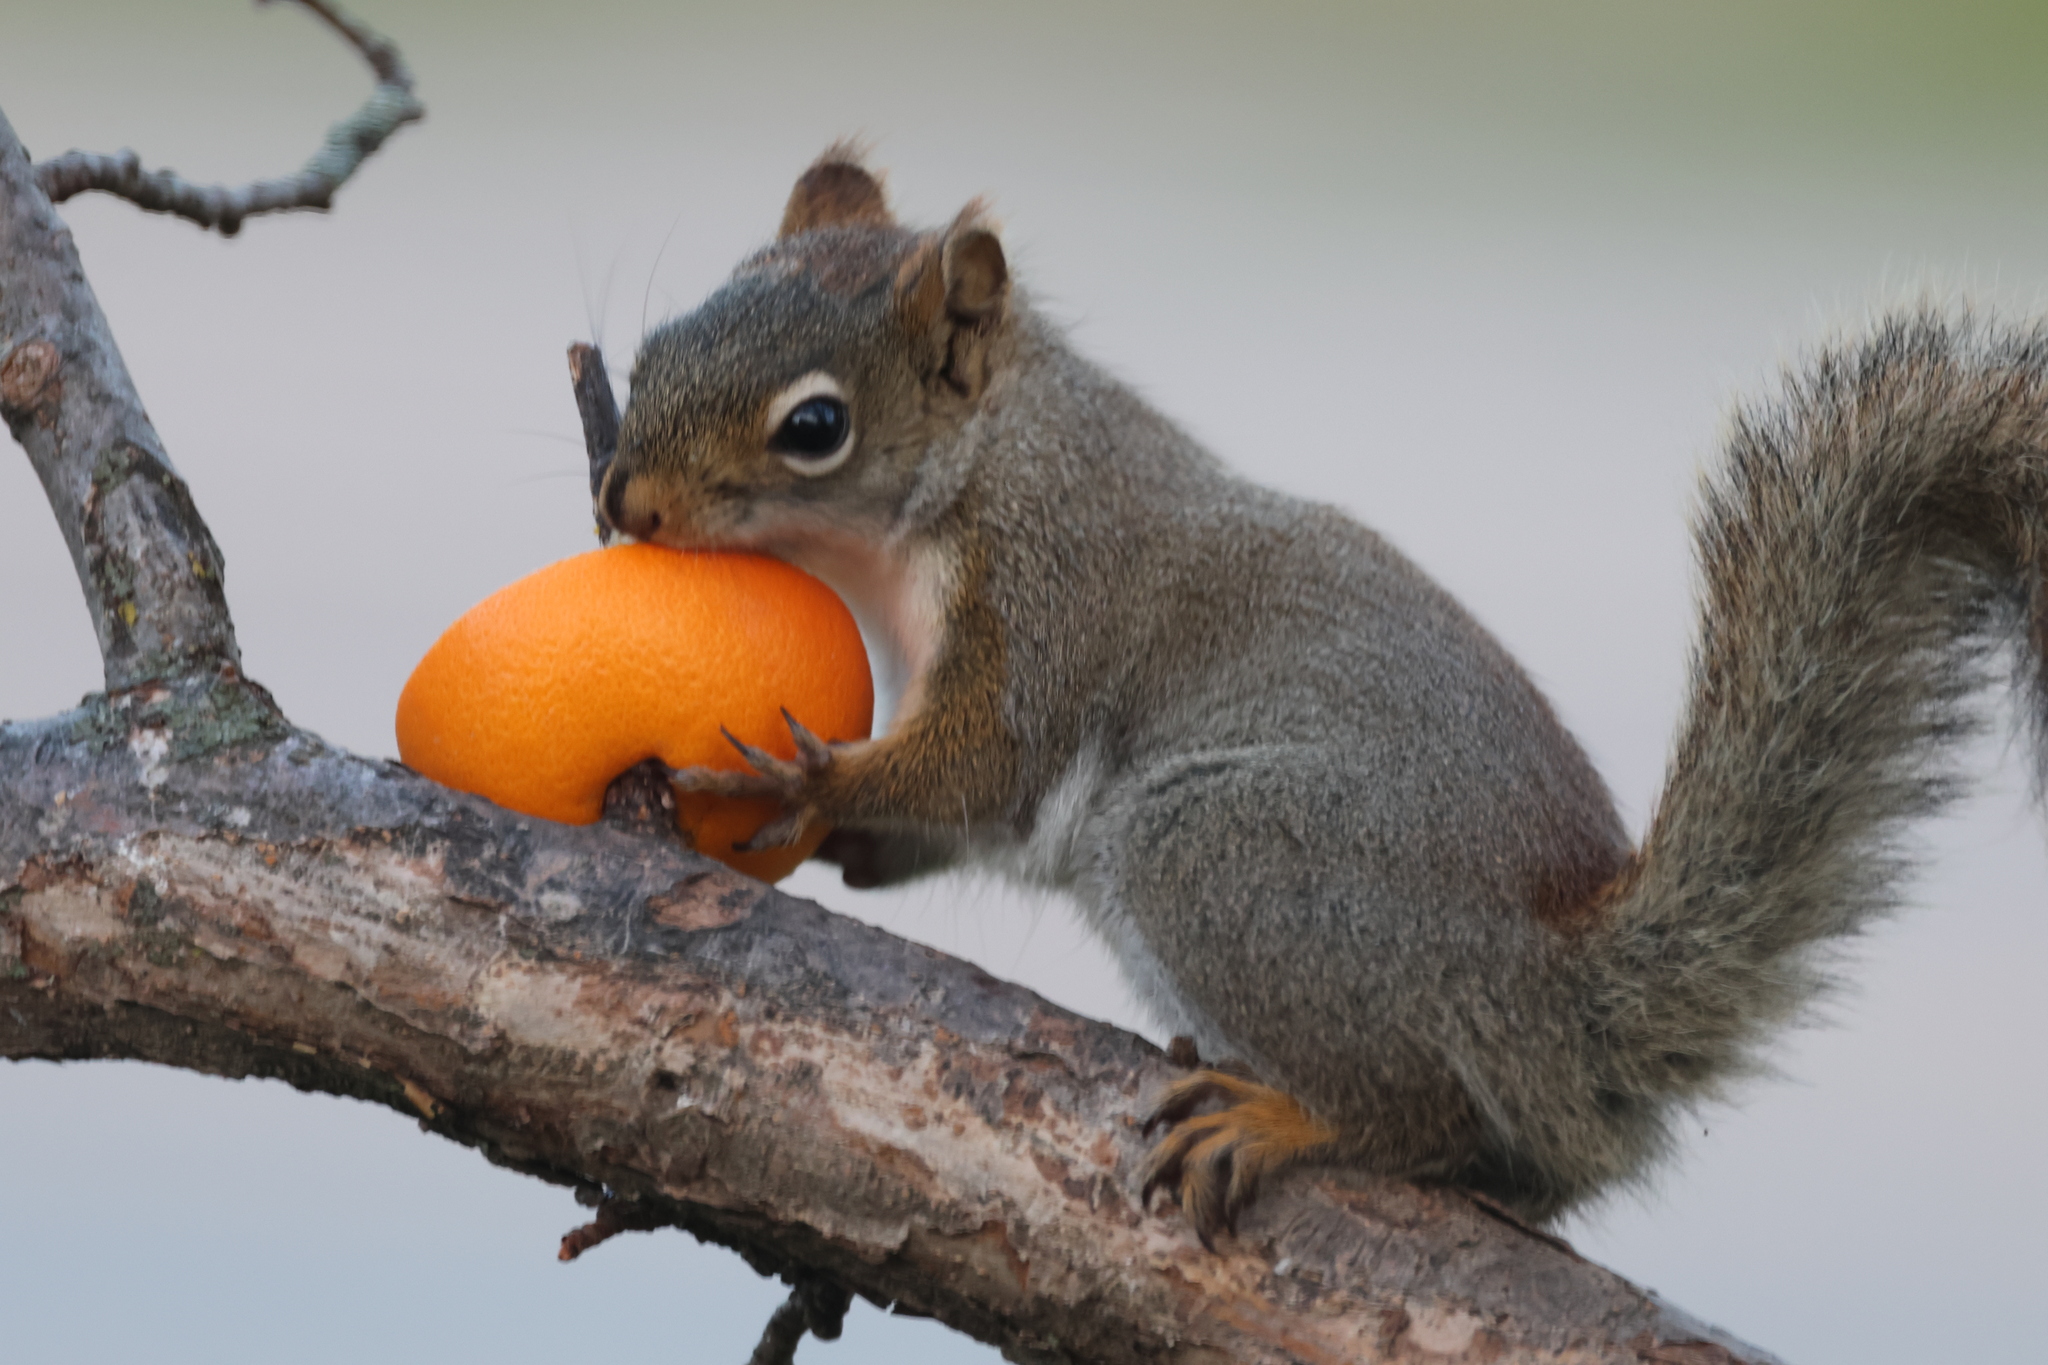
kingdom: Animalia
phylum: Chordata
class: Mammalia
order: Rodentia
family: Sciuridae
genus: Tamiasciurus
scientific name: Tamiasciurus hudsonicus
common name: Red squirrel
